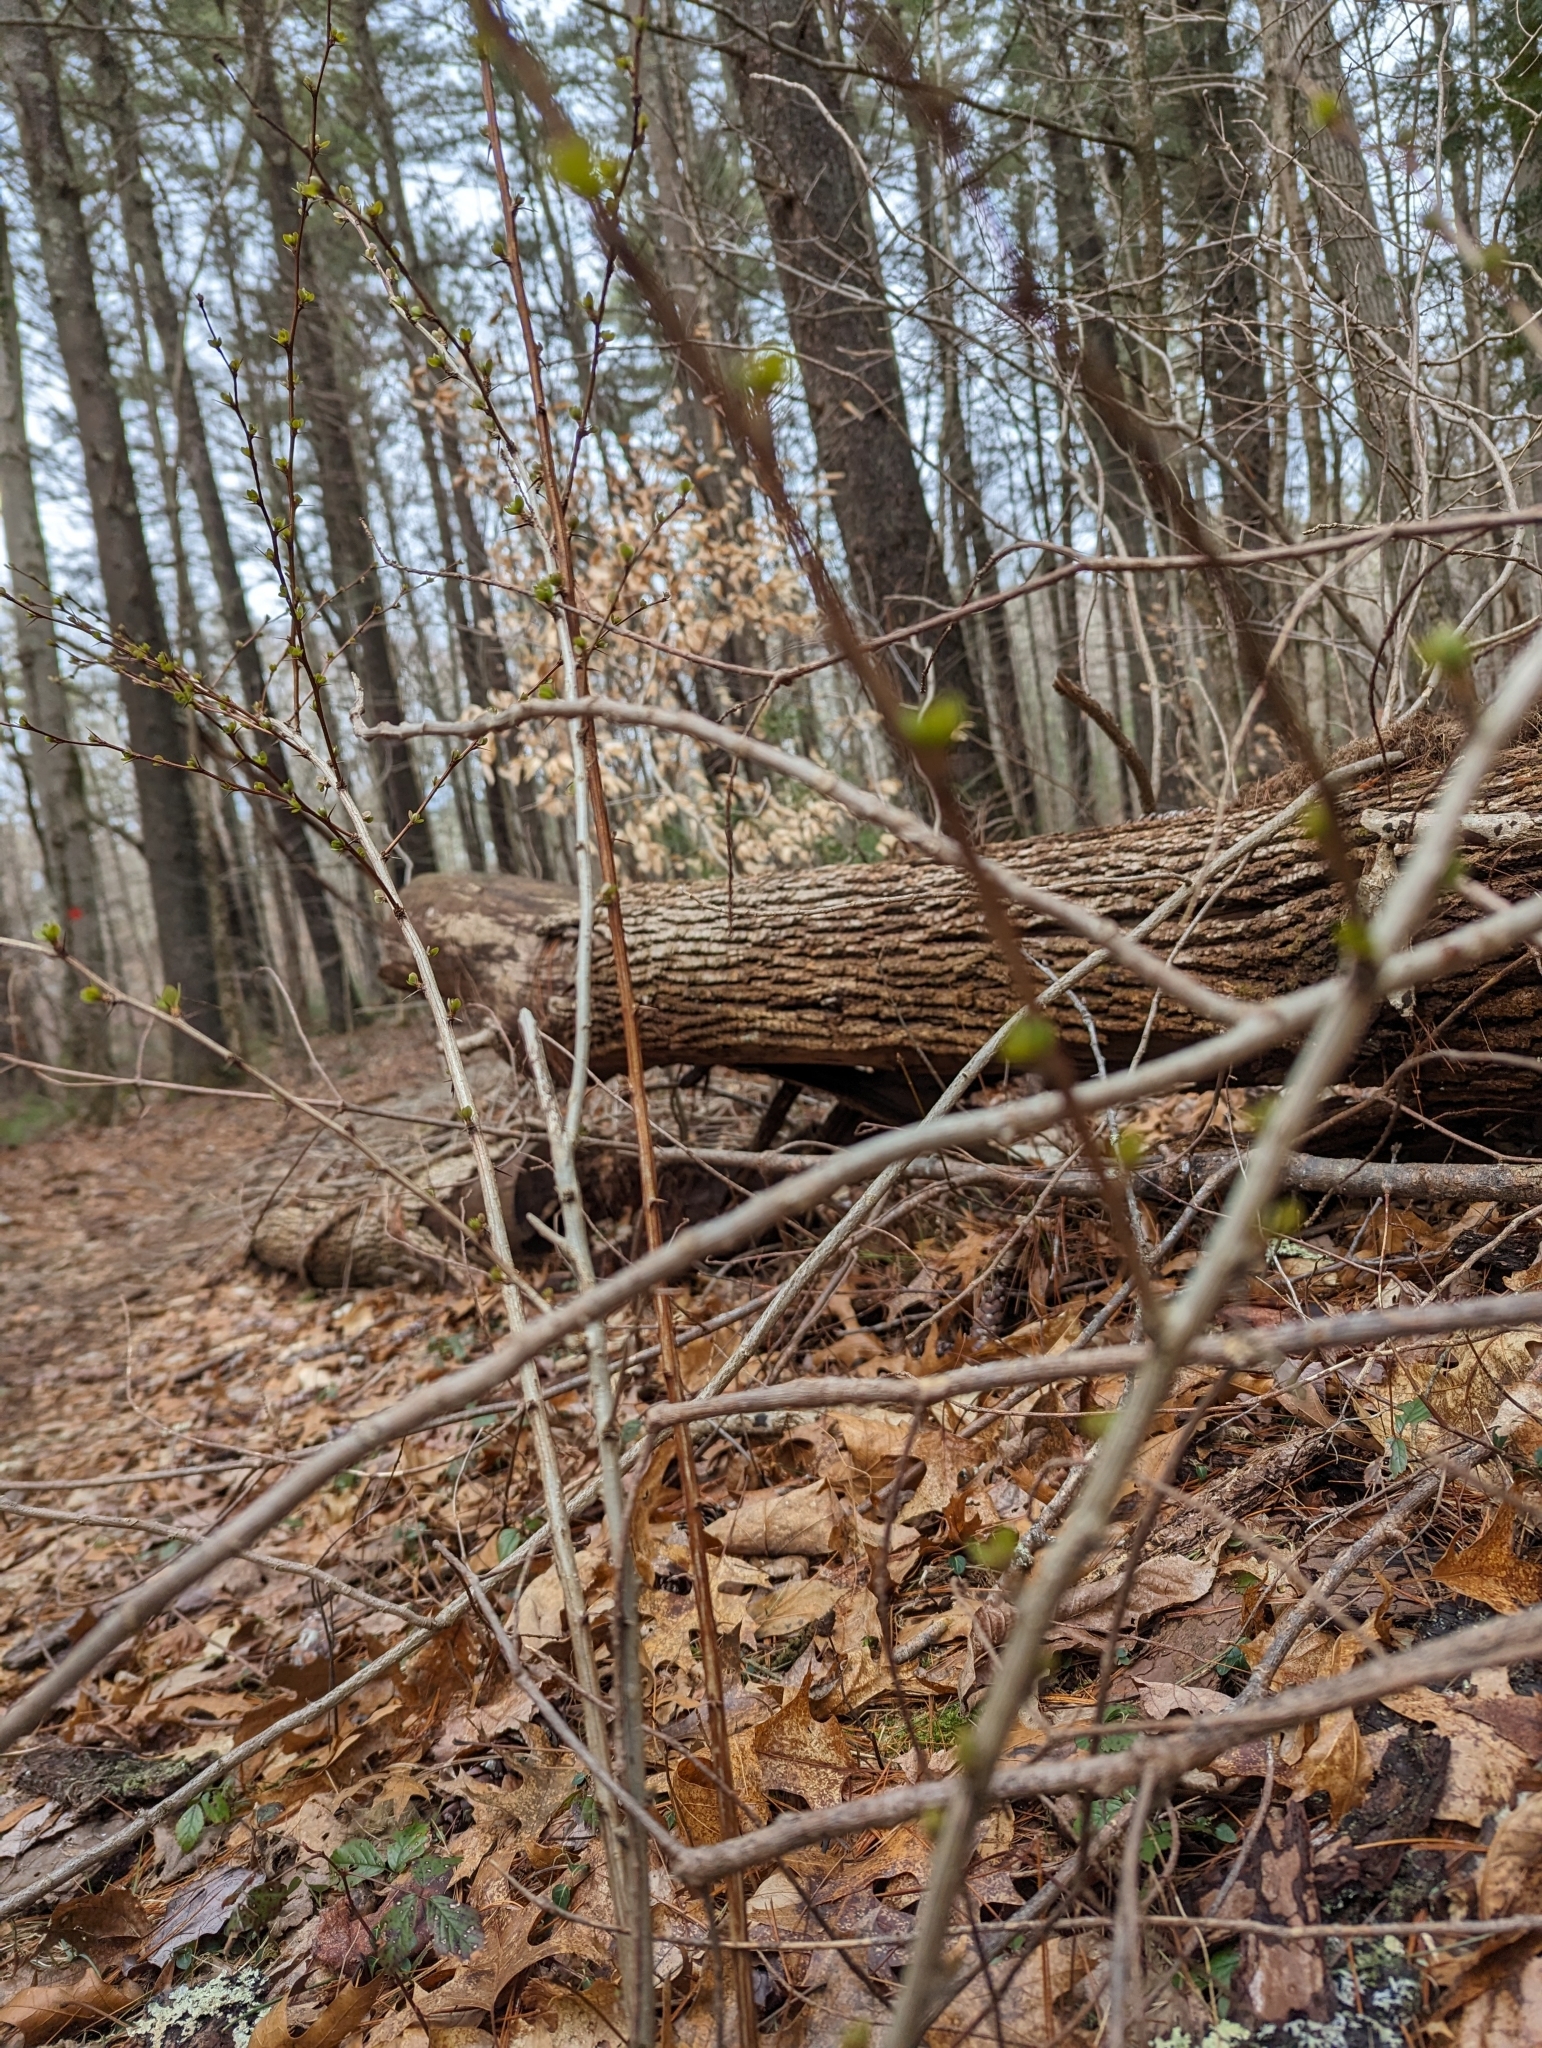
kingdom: Plantae
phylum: Tracheophyta
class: Magnoliopsida
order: Ranunculales
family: Berberidaceae
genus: Berberis
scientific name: Berberis thunbergii
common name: Japanese barberry
